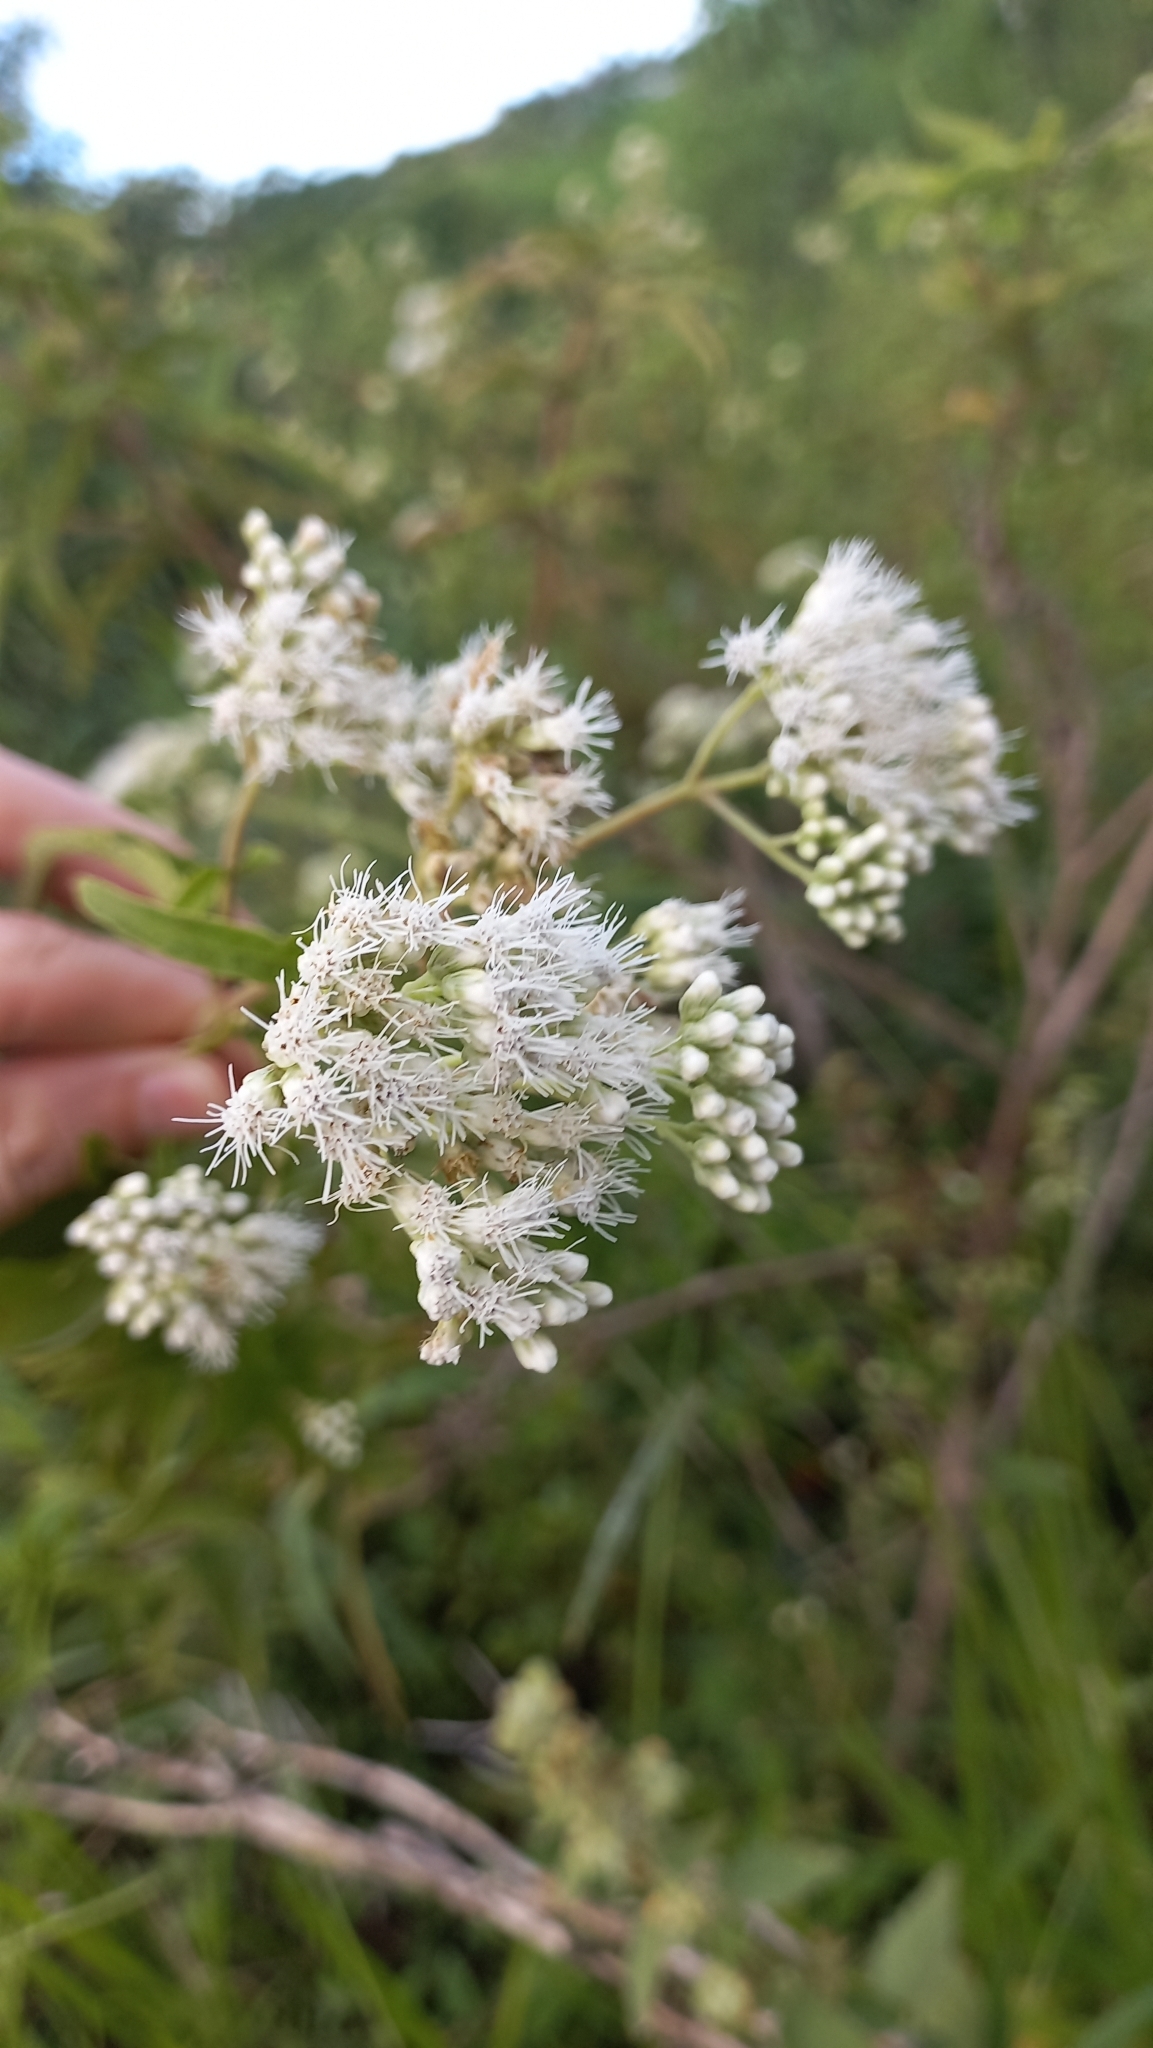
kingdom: Plantae
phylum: Tracheophyta
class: Magnoliopsida
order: Asterales
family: Asteraceae
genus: Austroeupatorium
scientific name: Austroeupatorium inulifolium
